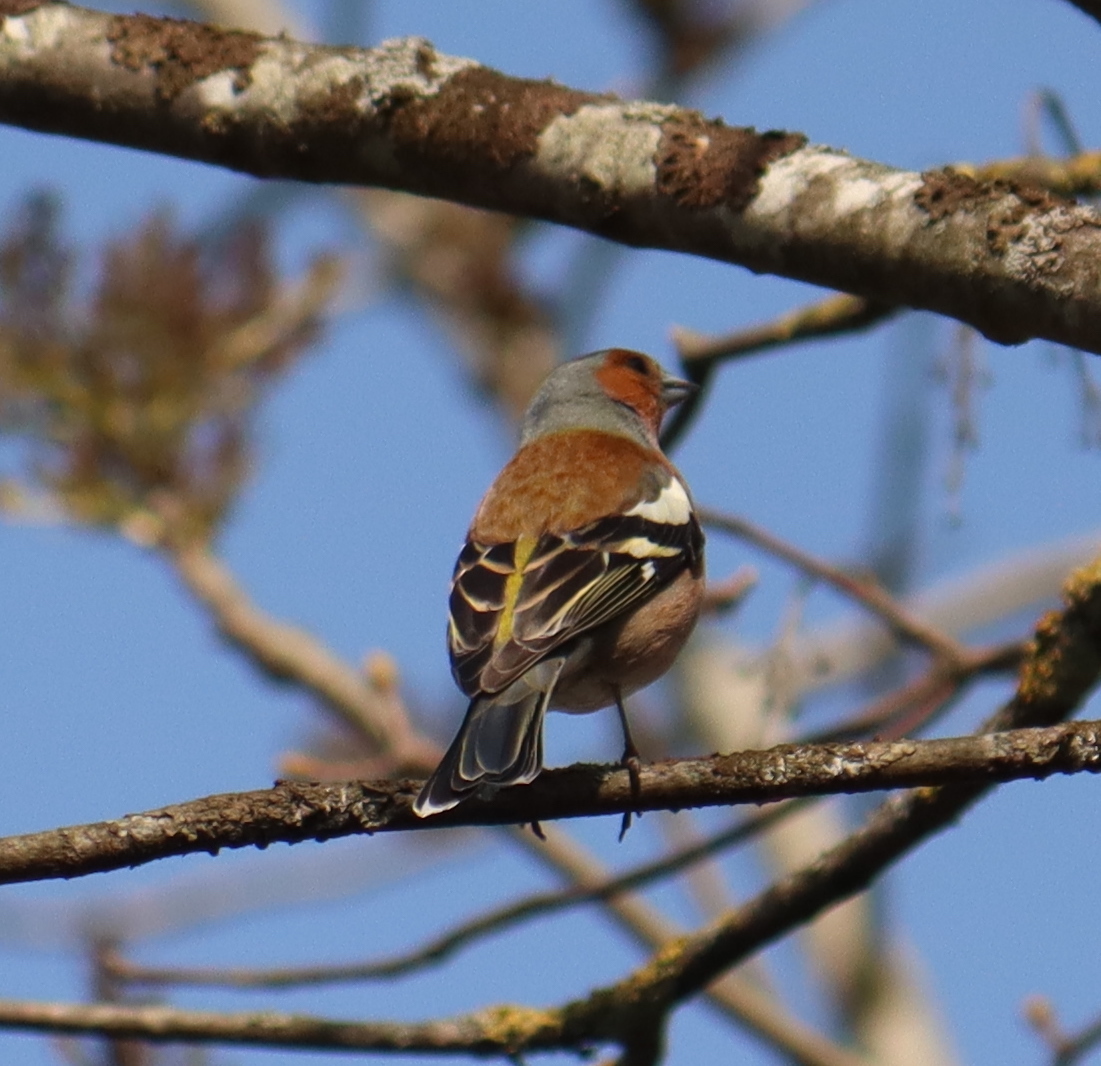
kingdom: Animalia
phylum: Chordata
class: Aves
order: Passeriformes
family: Fringillidae
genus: Fringilla
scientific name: Fringilla coelebs
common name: Common chaffinch
